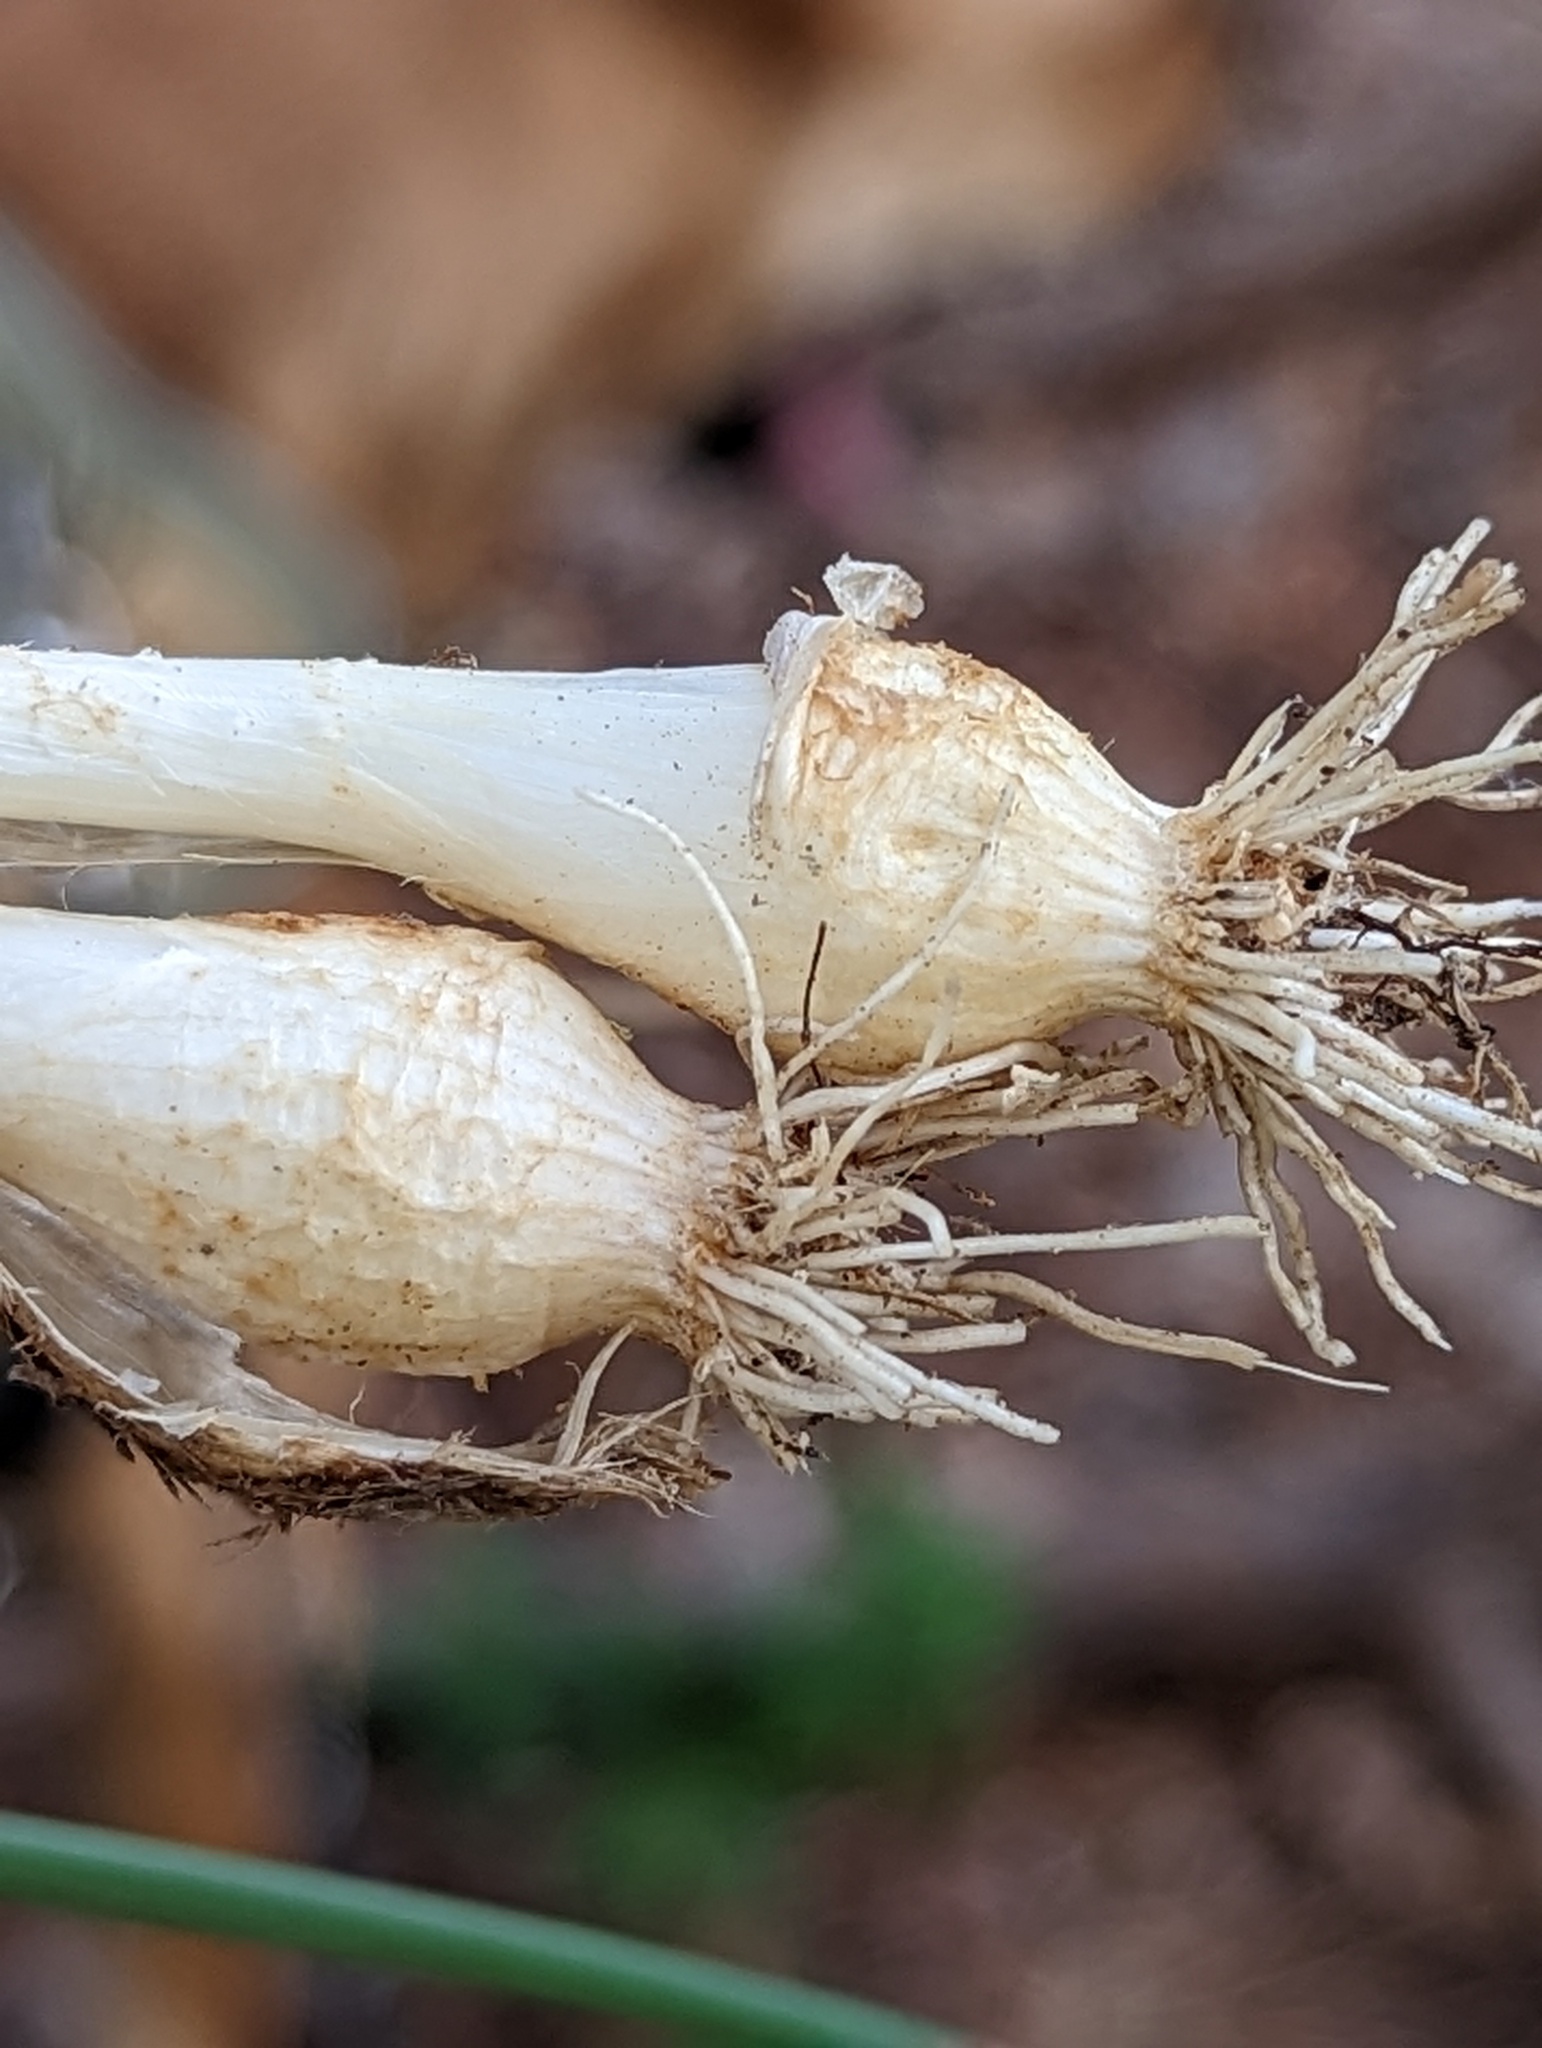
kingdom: Plantae
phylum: Tracheophyta
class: Liliopsida
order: Asparagales
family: Amaryllidaceae
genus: Allium
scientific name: Allium vineale
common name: Crow garlic
